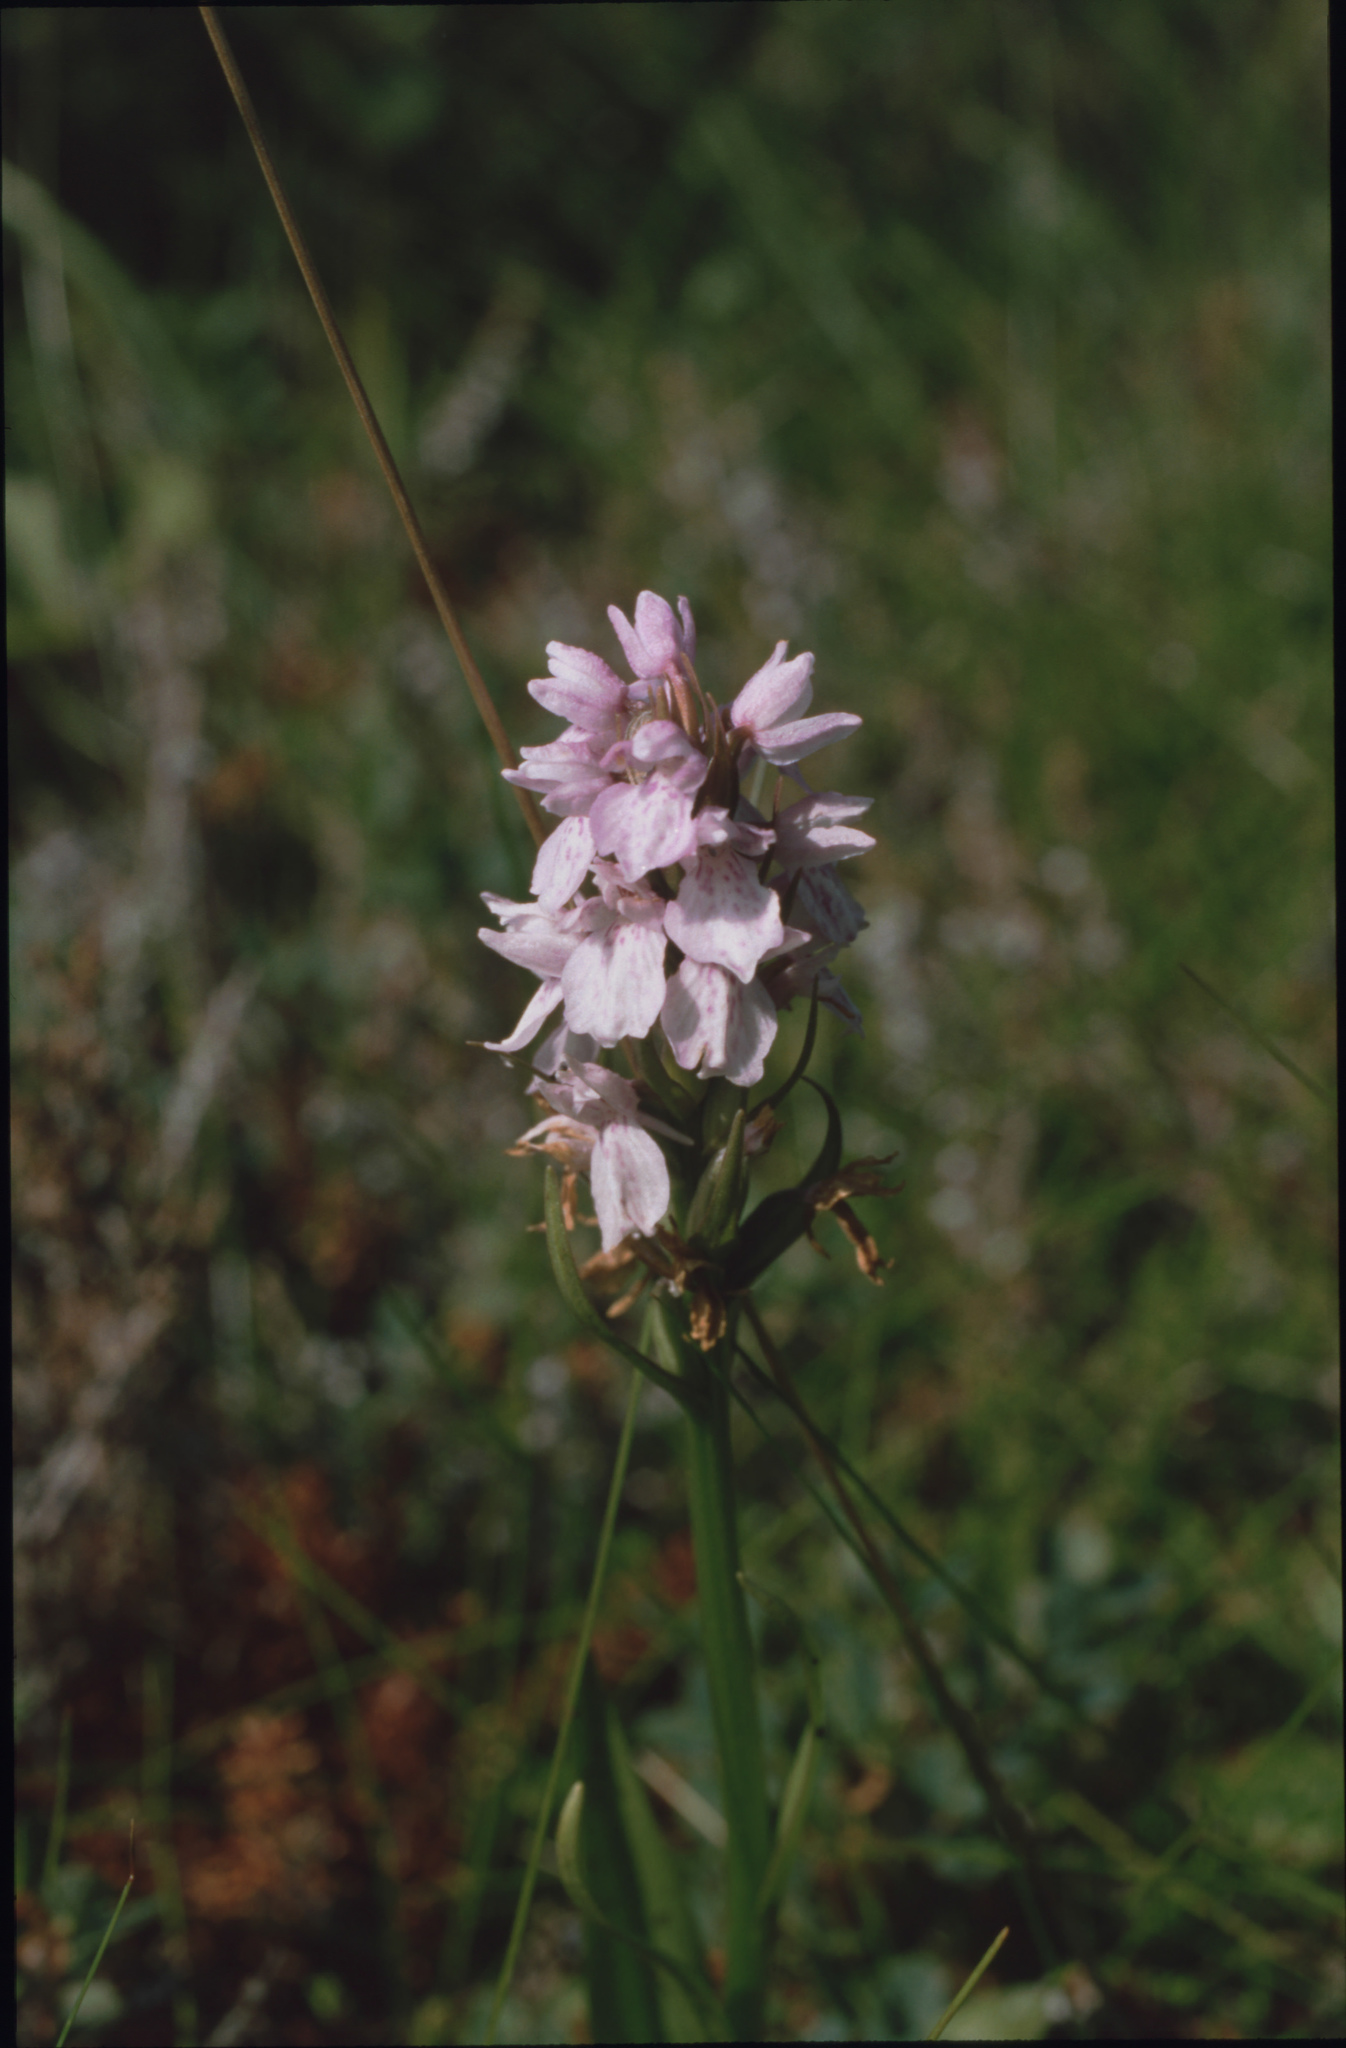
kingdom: Plantae
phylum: Tracheophyta
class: Liliopsida
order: Asparagales
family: Orchidaceae
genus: Dactylorhiza
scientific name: Dactylorhiza maculata
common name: Heath spotted-orchid
